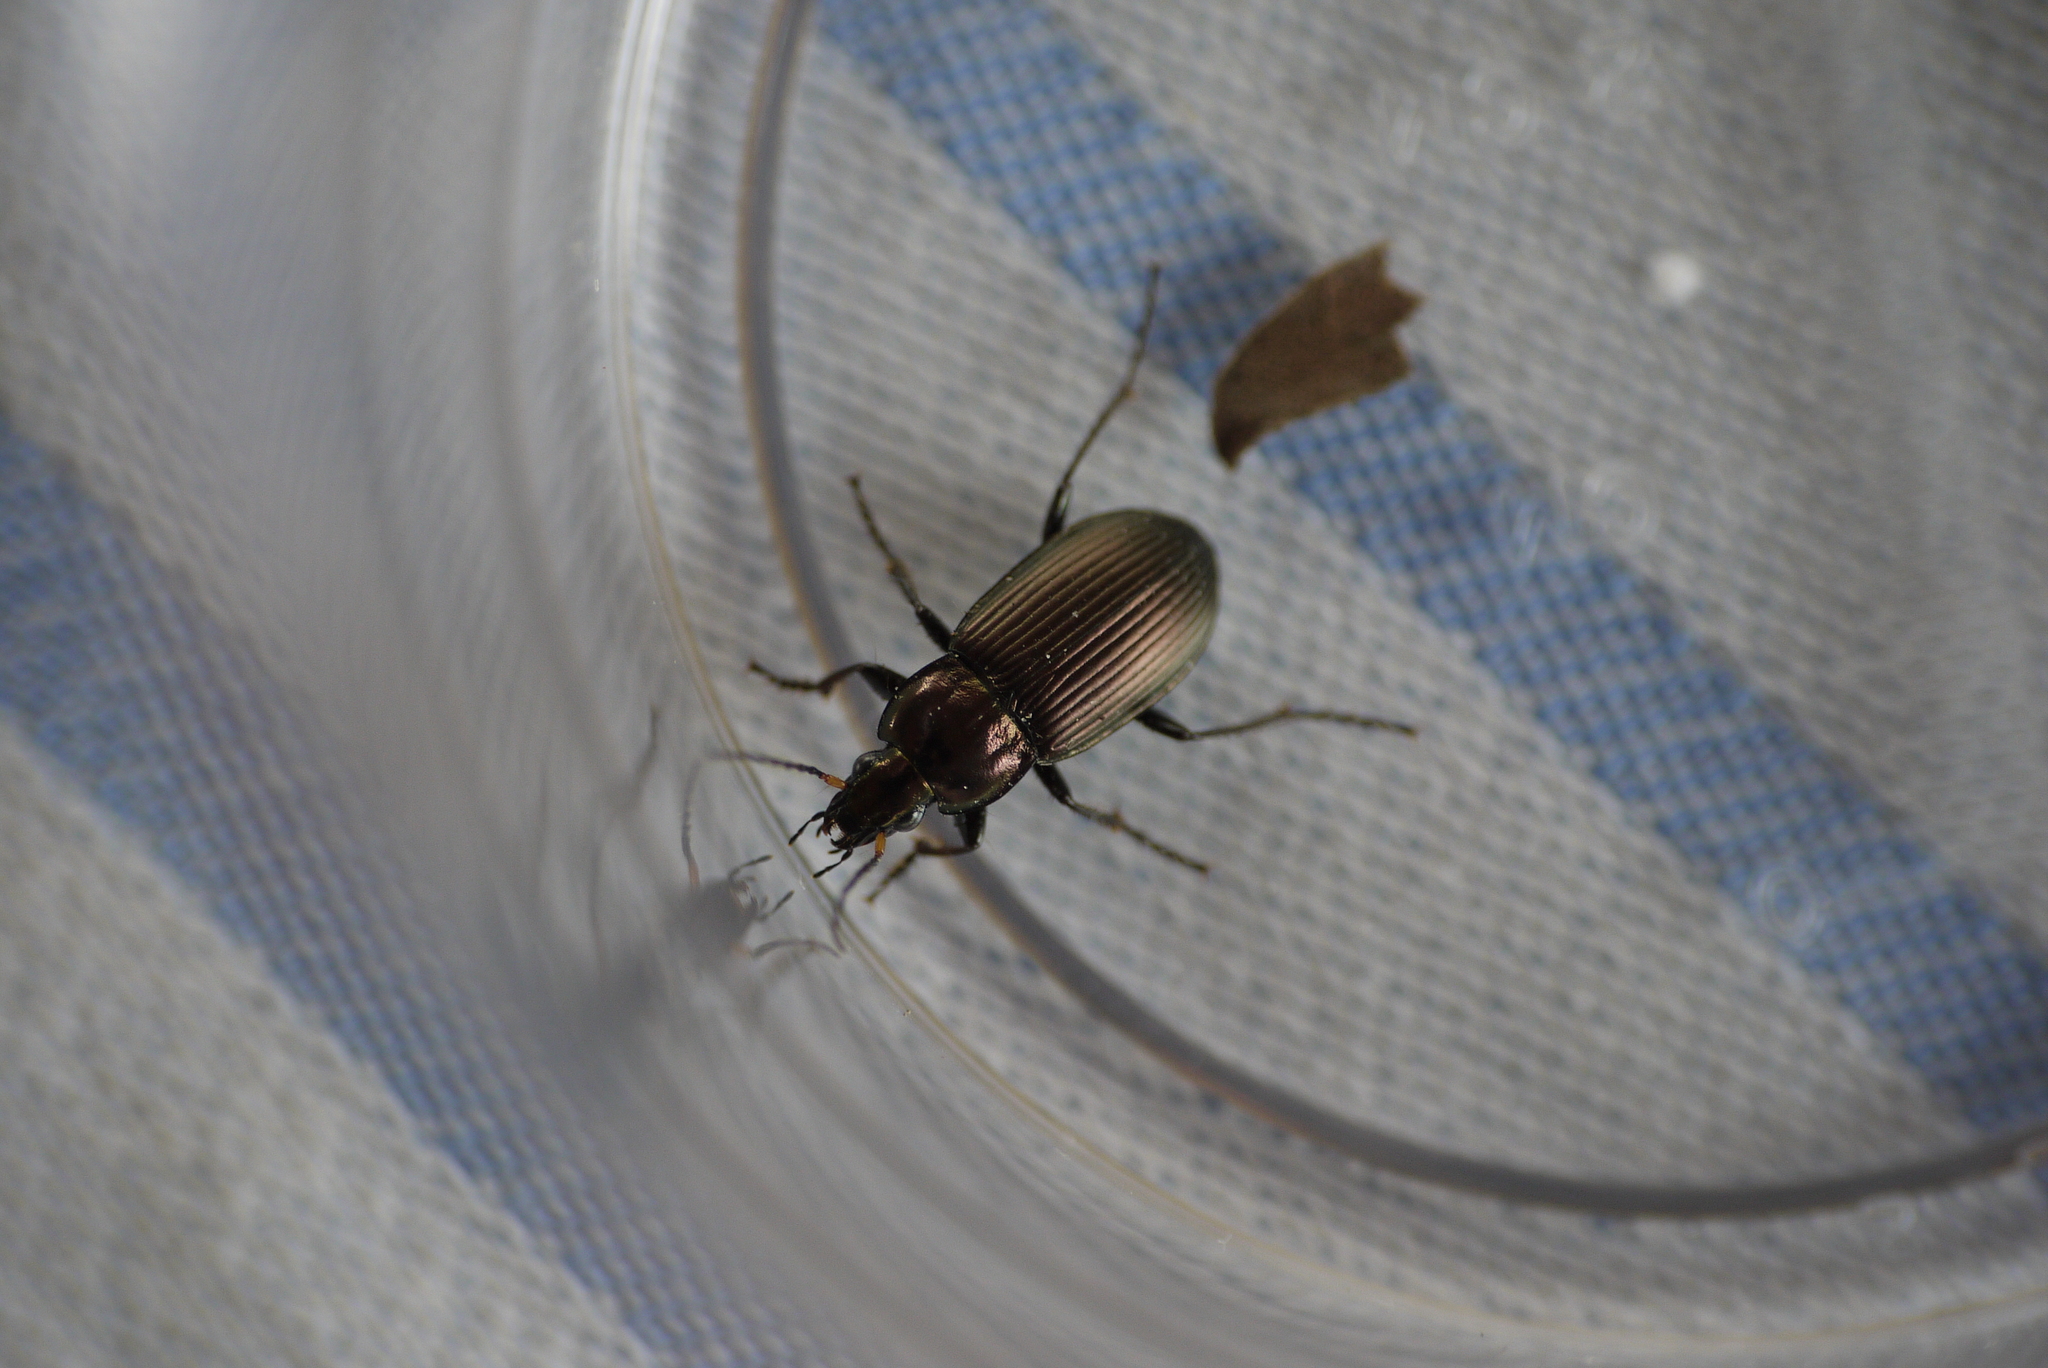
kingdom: Animalia
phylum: Arthropoda
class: Insecta
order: Coleoptera
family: Carabidae
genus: Poecilus
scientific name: Poecilus cupreus
